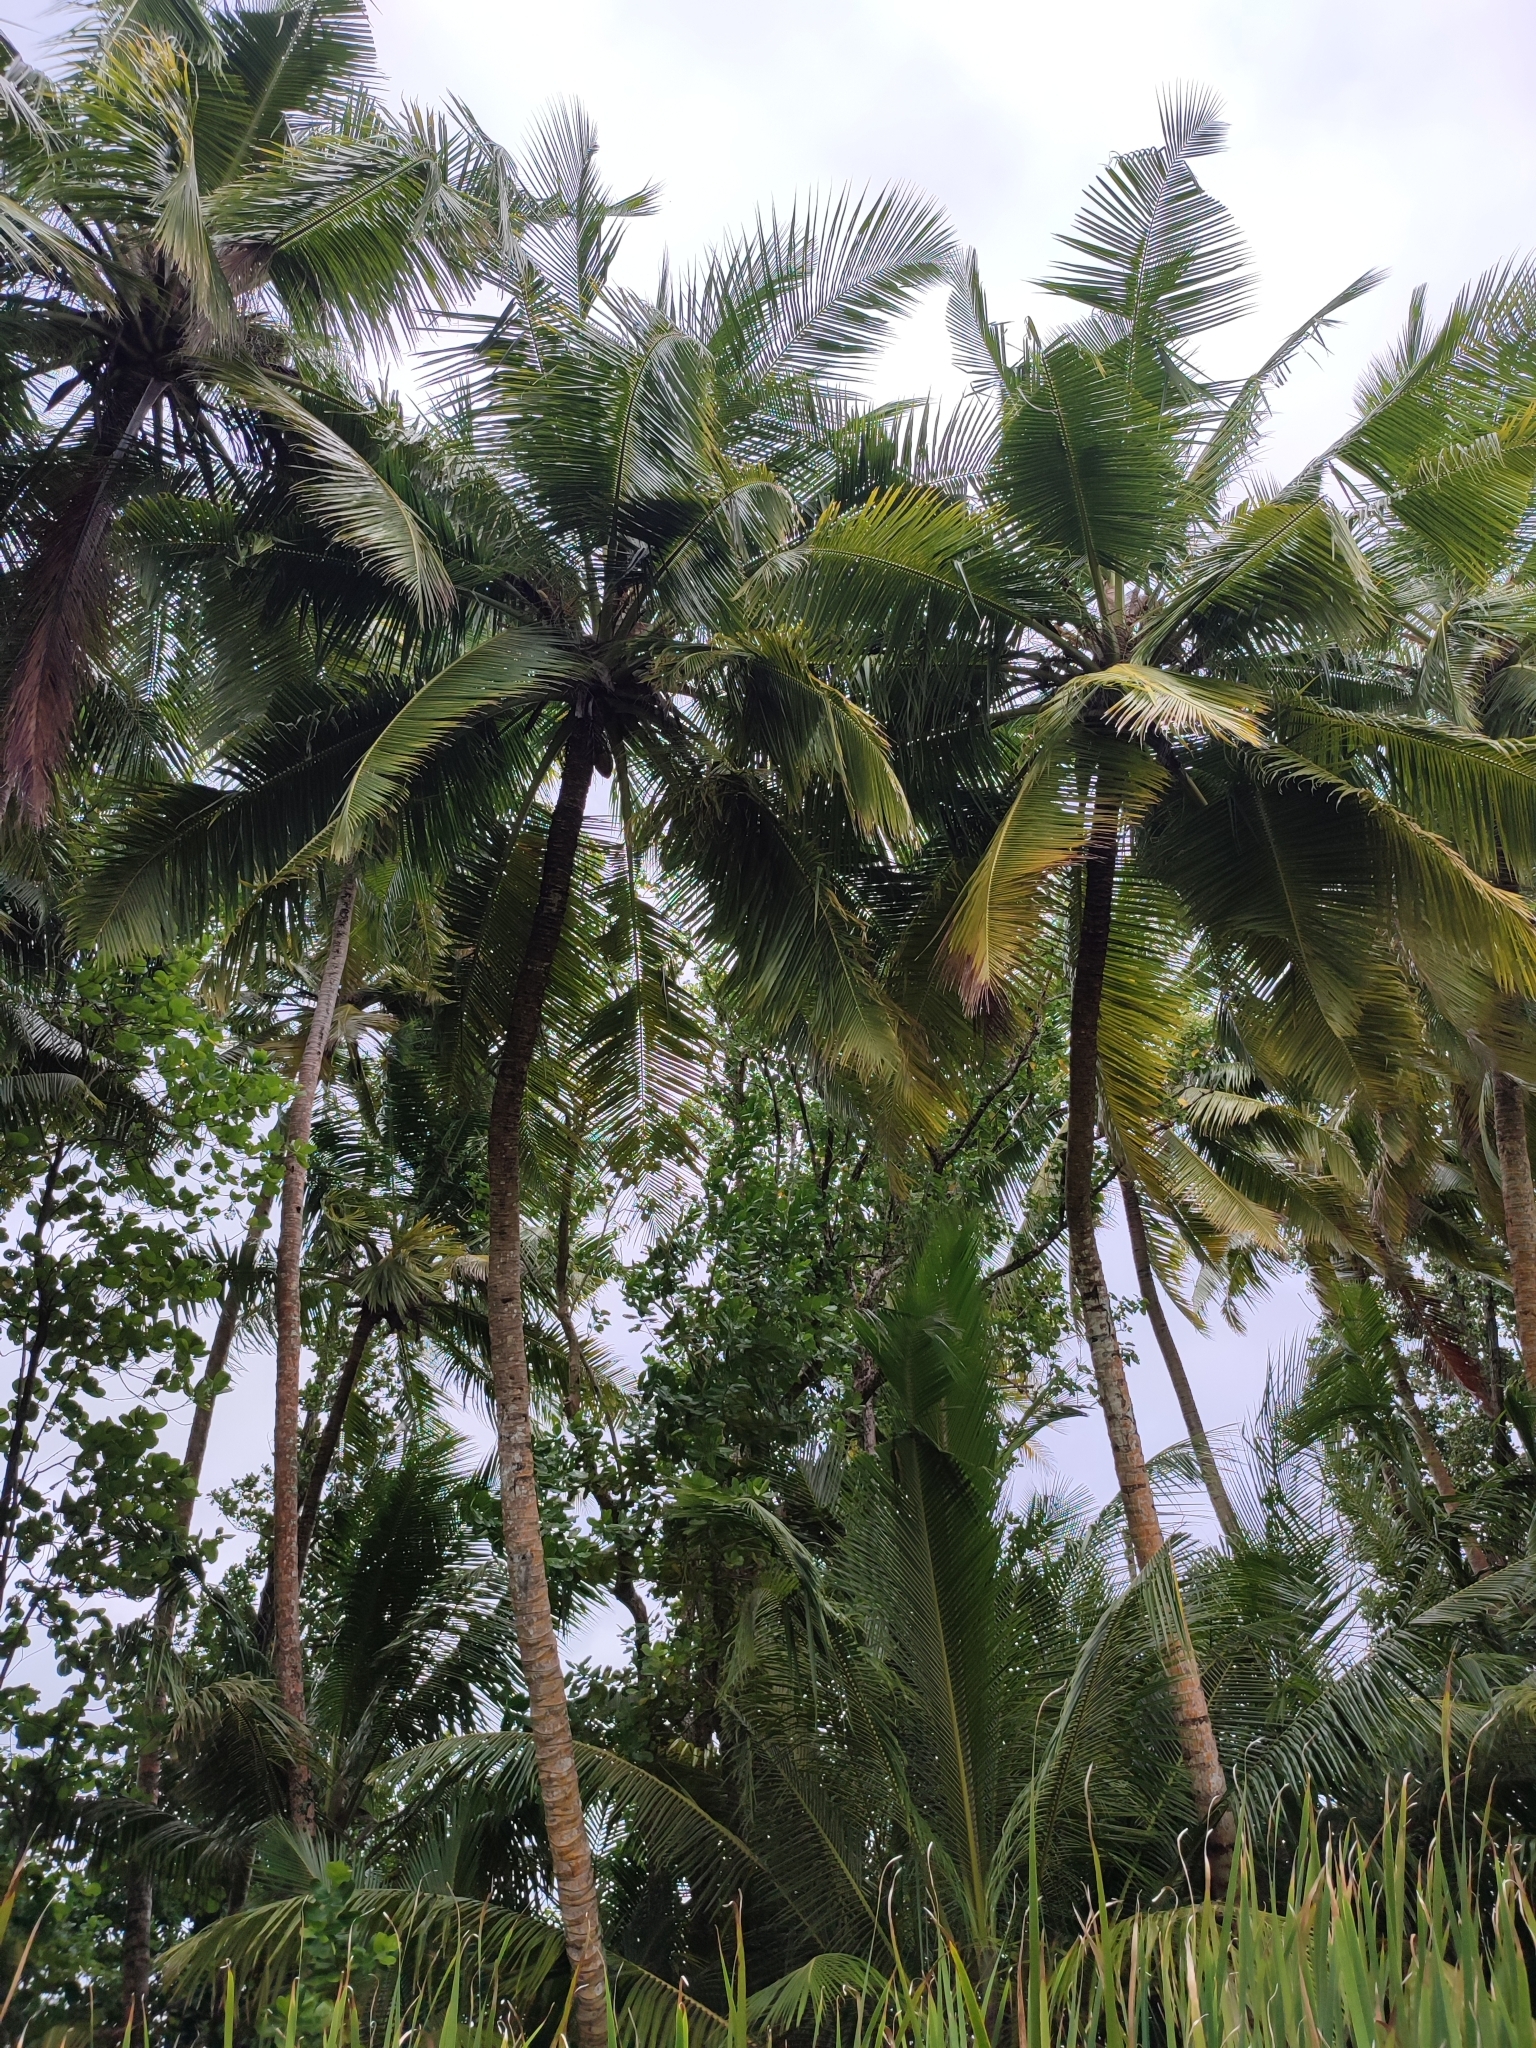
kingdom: Plantae
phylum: Tracheophyta
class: Liliopsida
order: Arecales
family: Arecaceae
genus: Cocos
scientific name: Cocos nucifera
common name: Coconut palm
